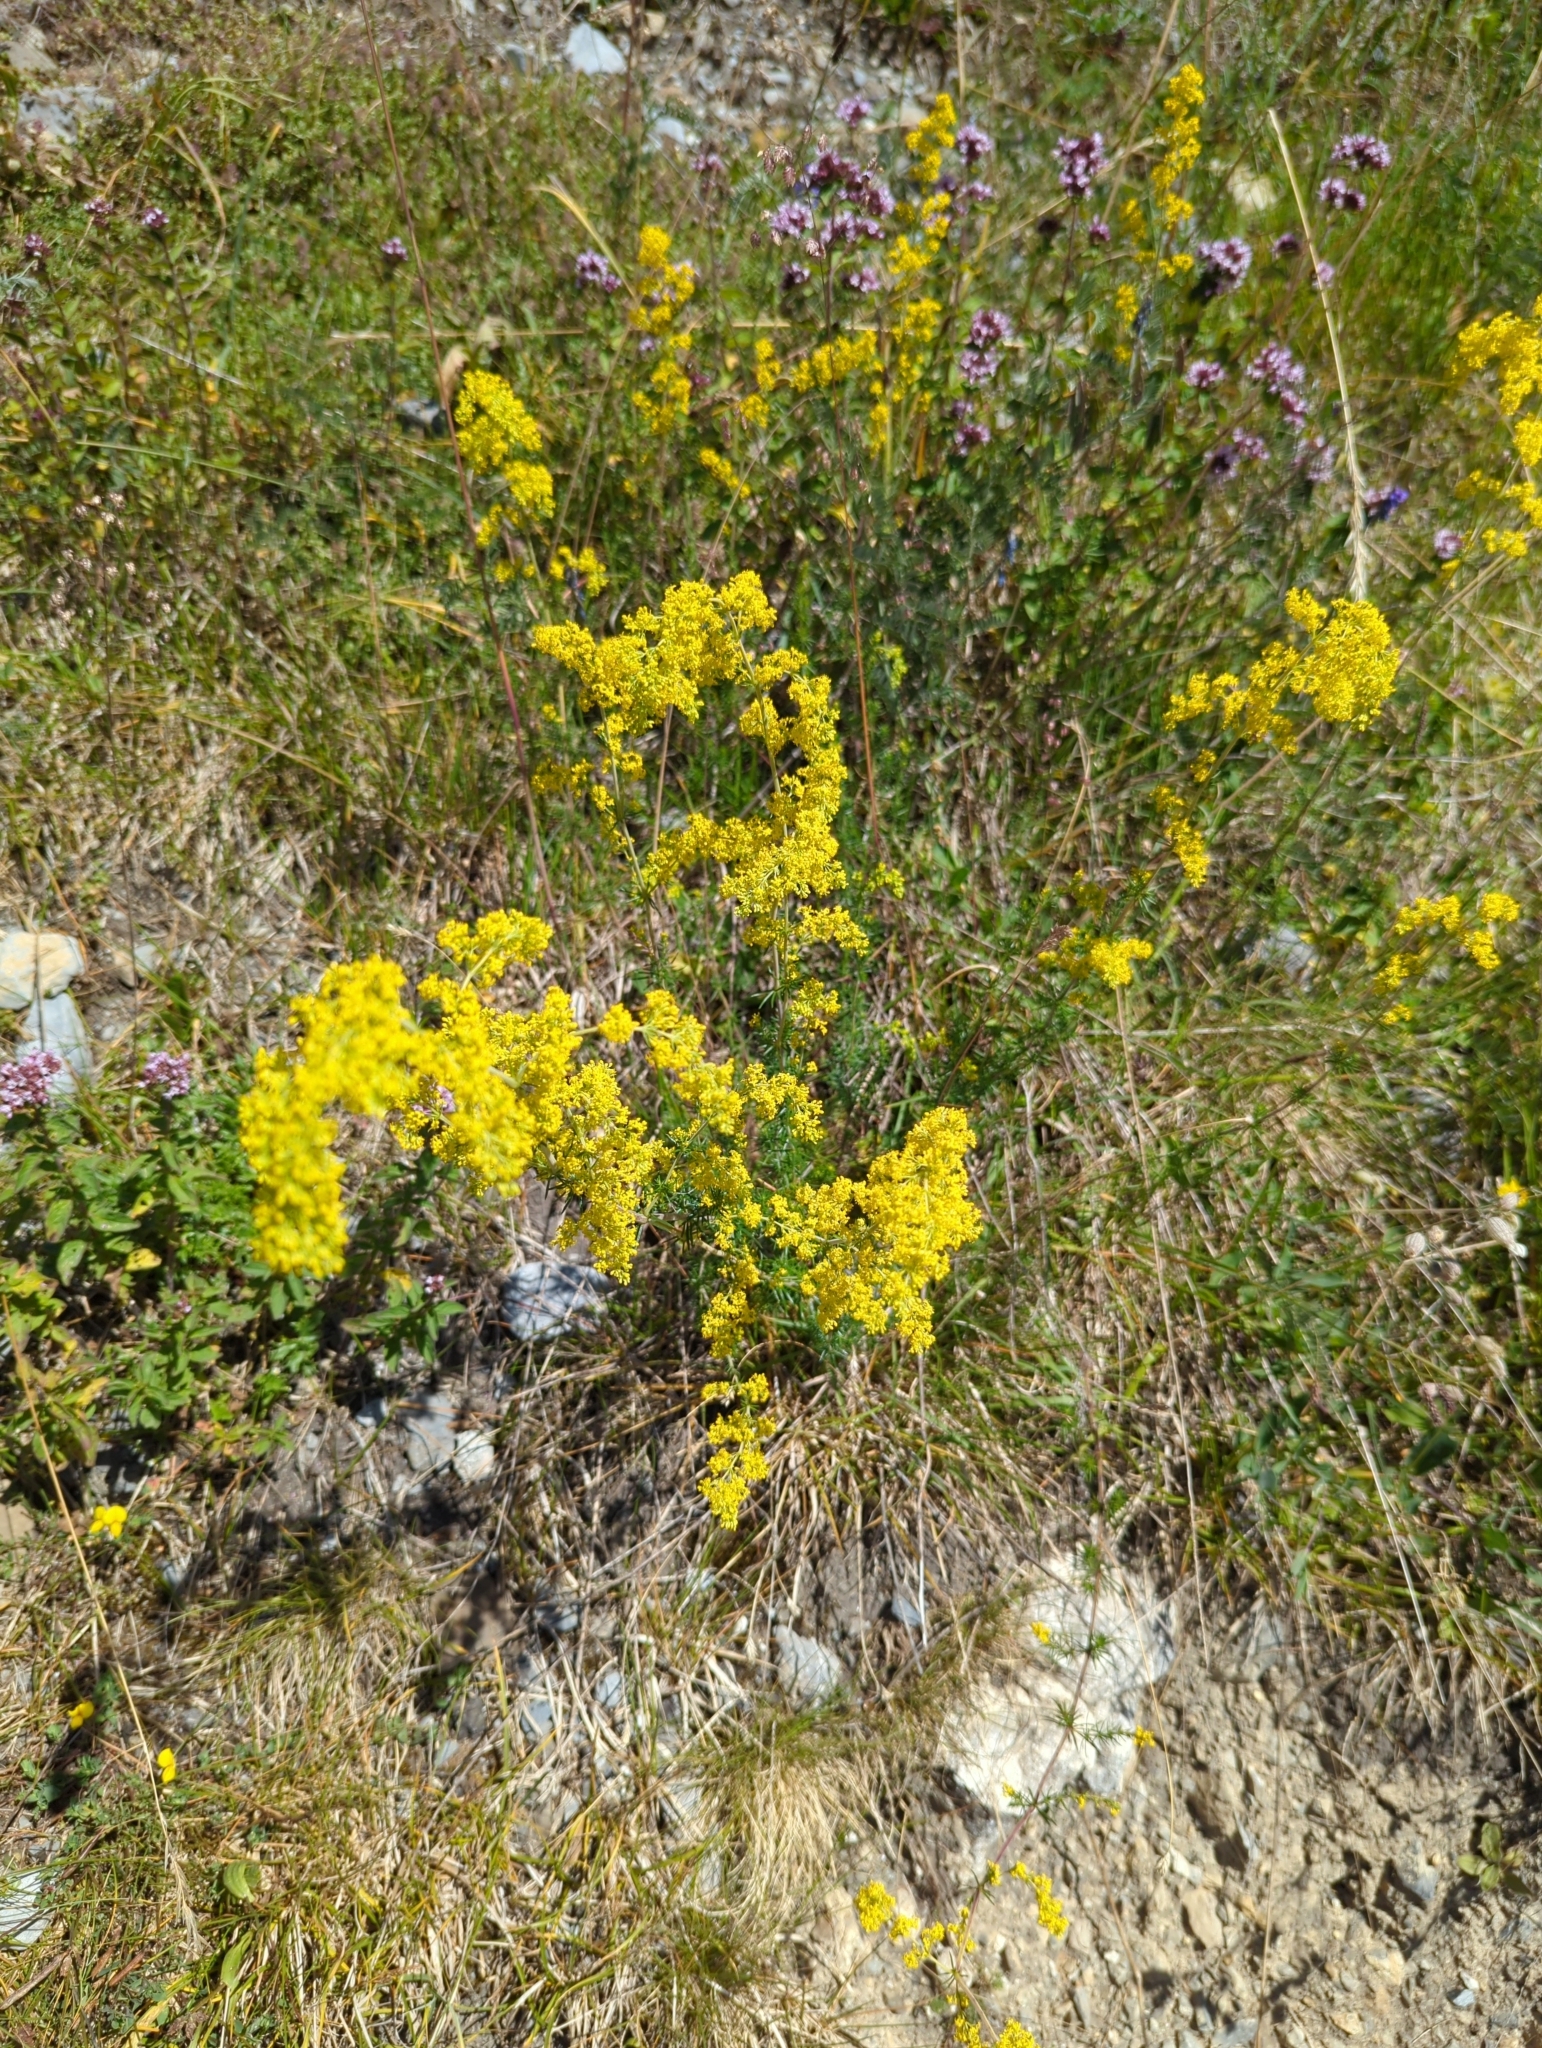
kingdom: Plantae
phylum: Tracheophyta
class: Magnoliopsida
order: Gentianales
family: Rubiaceae
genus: Galium
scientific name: Galium verum
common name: Lady's bedstraw
